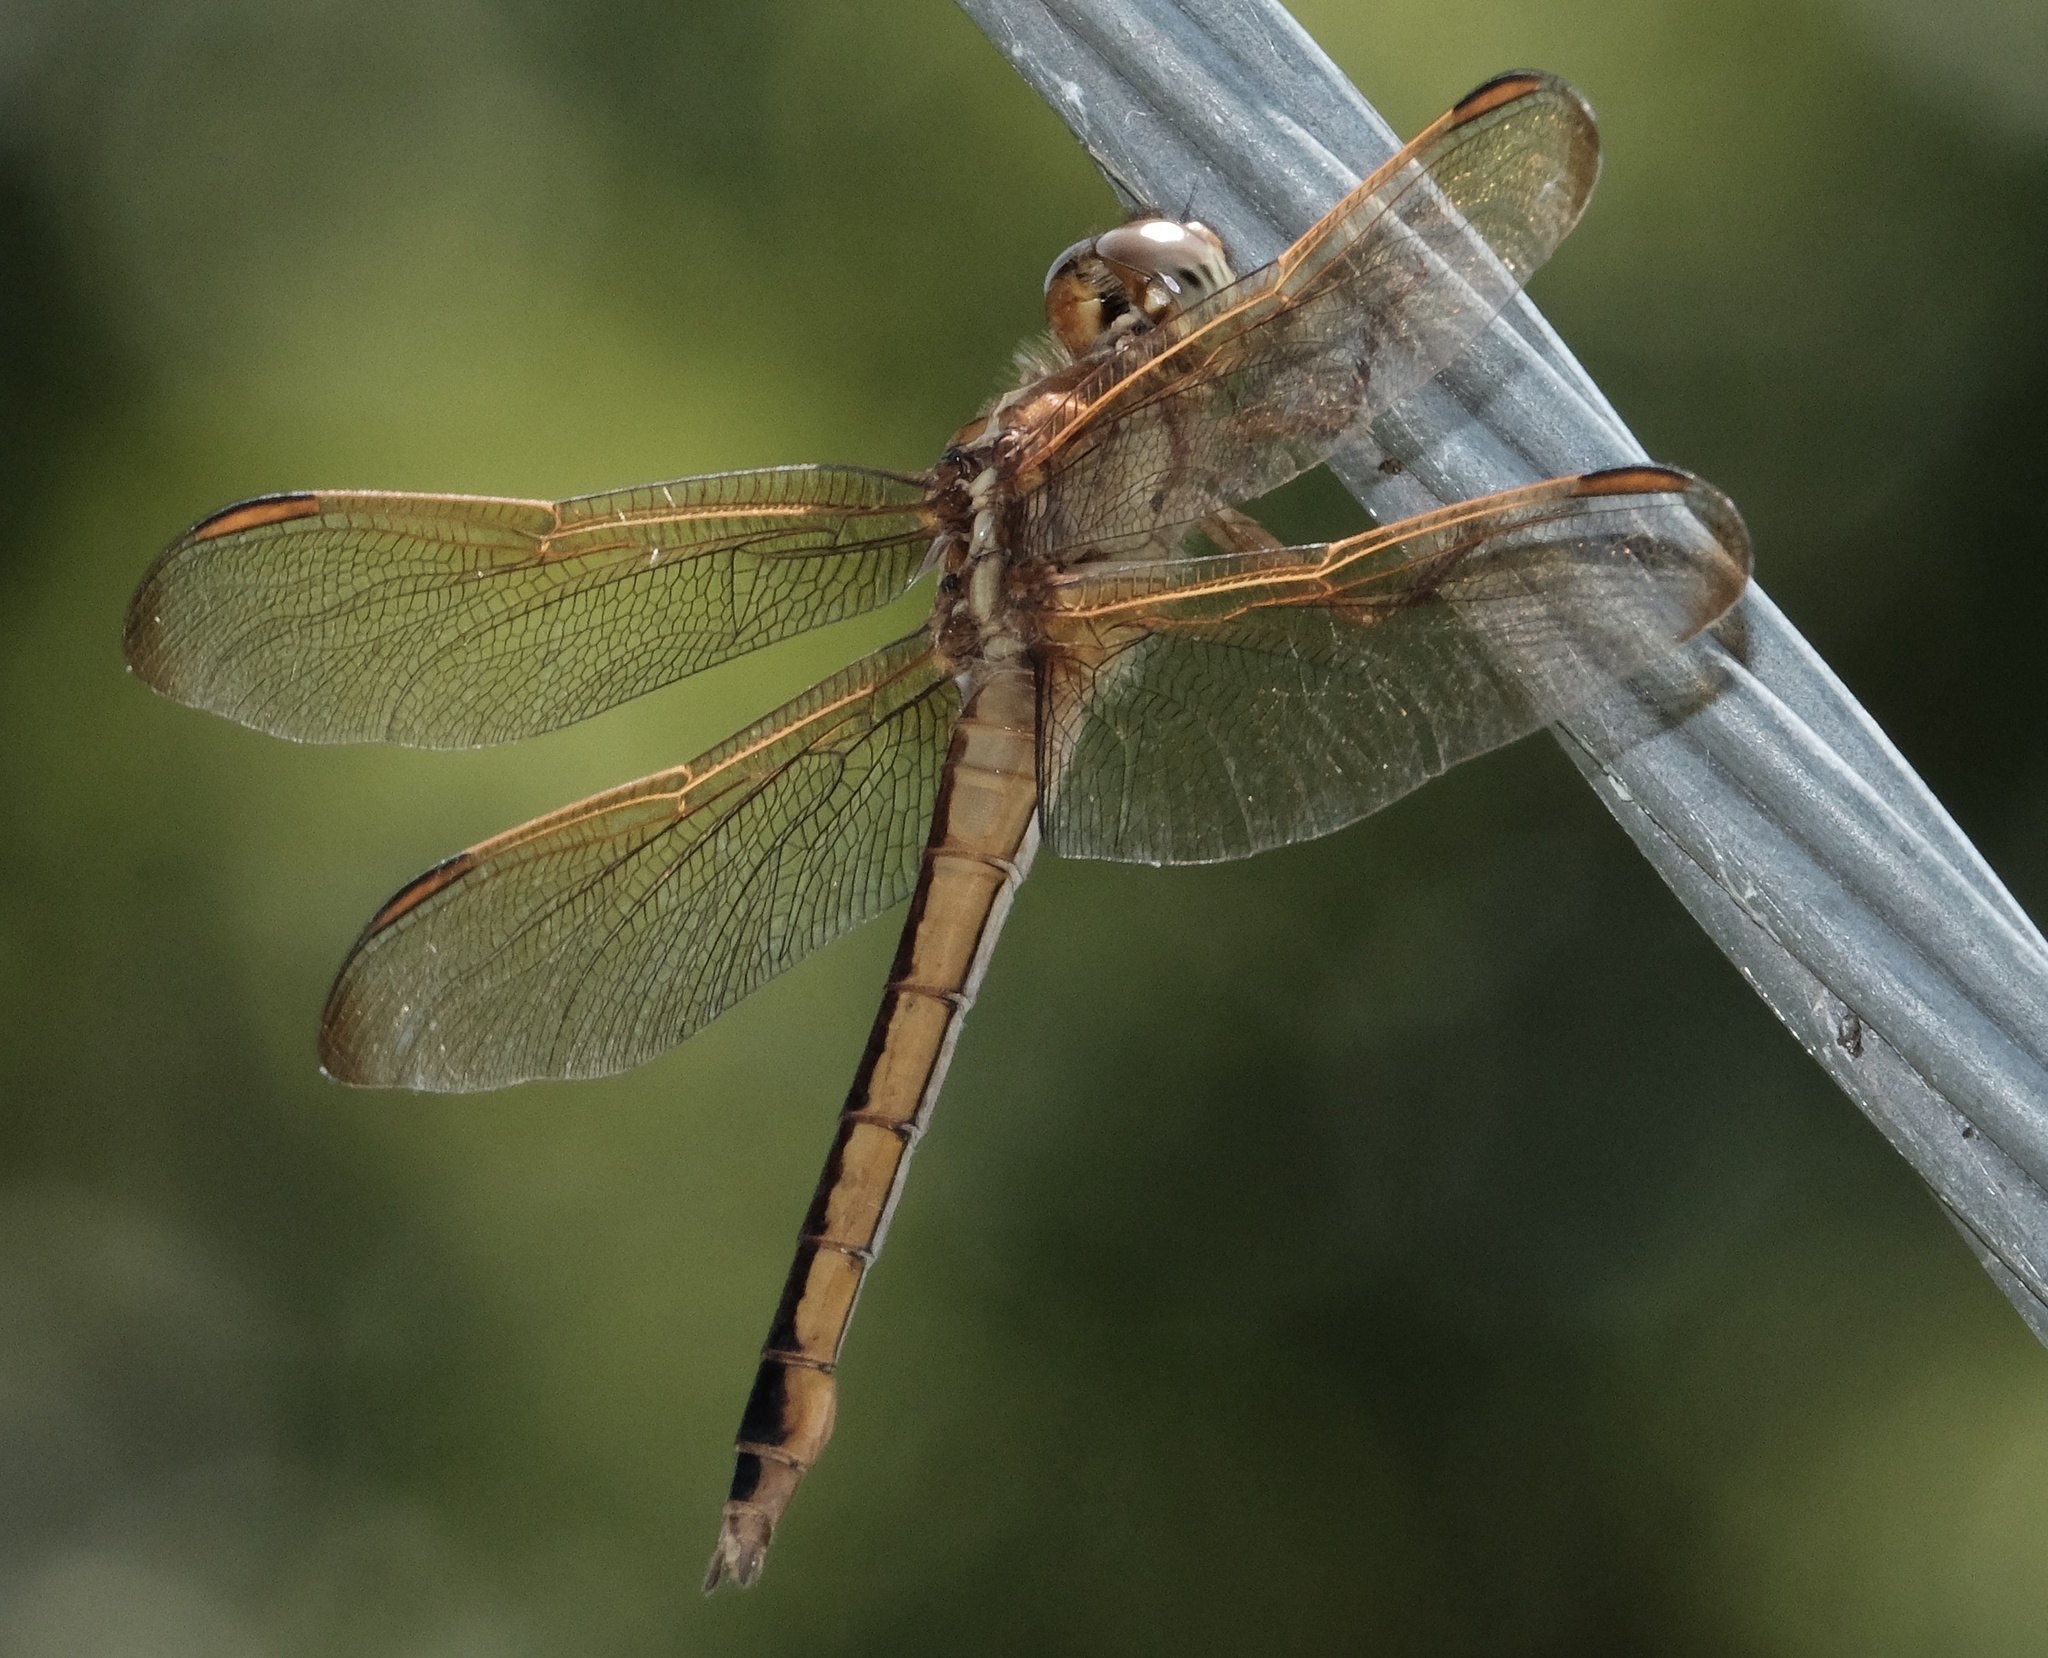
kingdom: Animalia
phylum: Arthropoda
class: Insecta
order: Odonata
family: Libellulidae
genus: Libellula
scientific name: Libellula needhami
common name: Needham's skimmer
